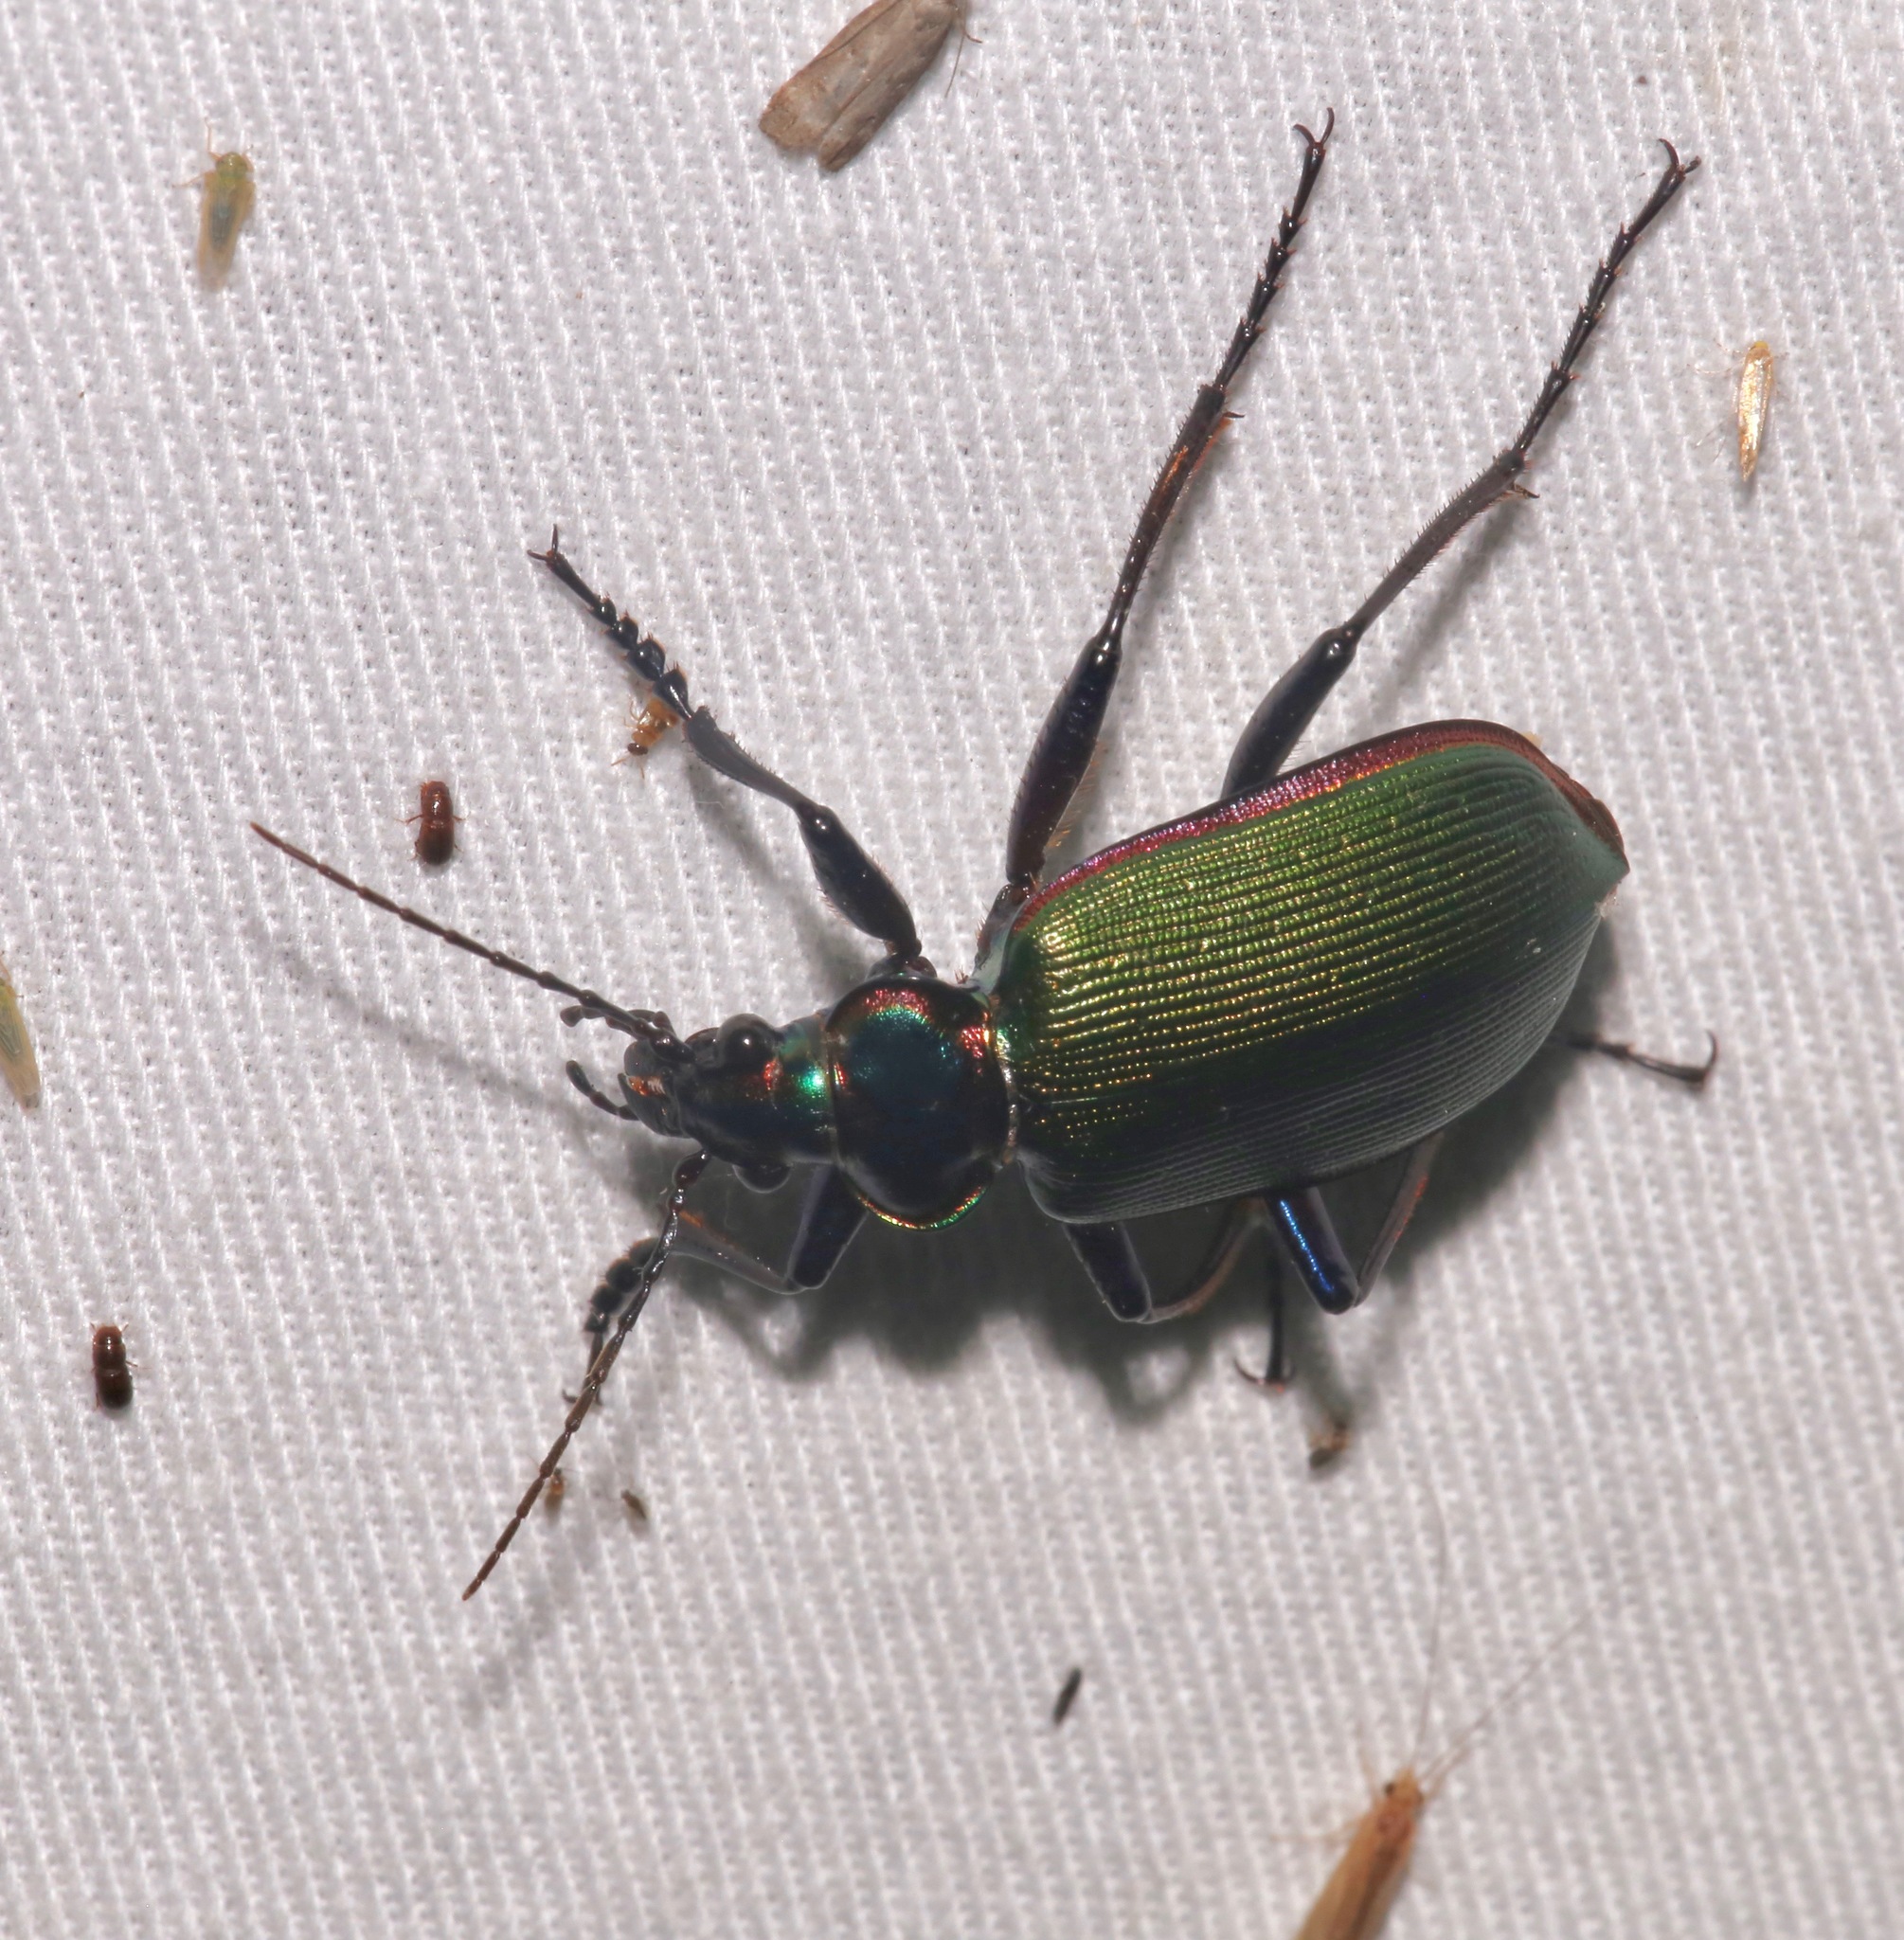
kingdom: Animalia
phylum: Arthropoda
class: Insecta
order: Coleoptera
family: Carabidae
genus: Calosoma
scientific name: Calosoma scrutator
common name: Fiery searcher beetle
